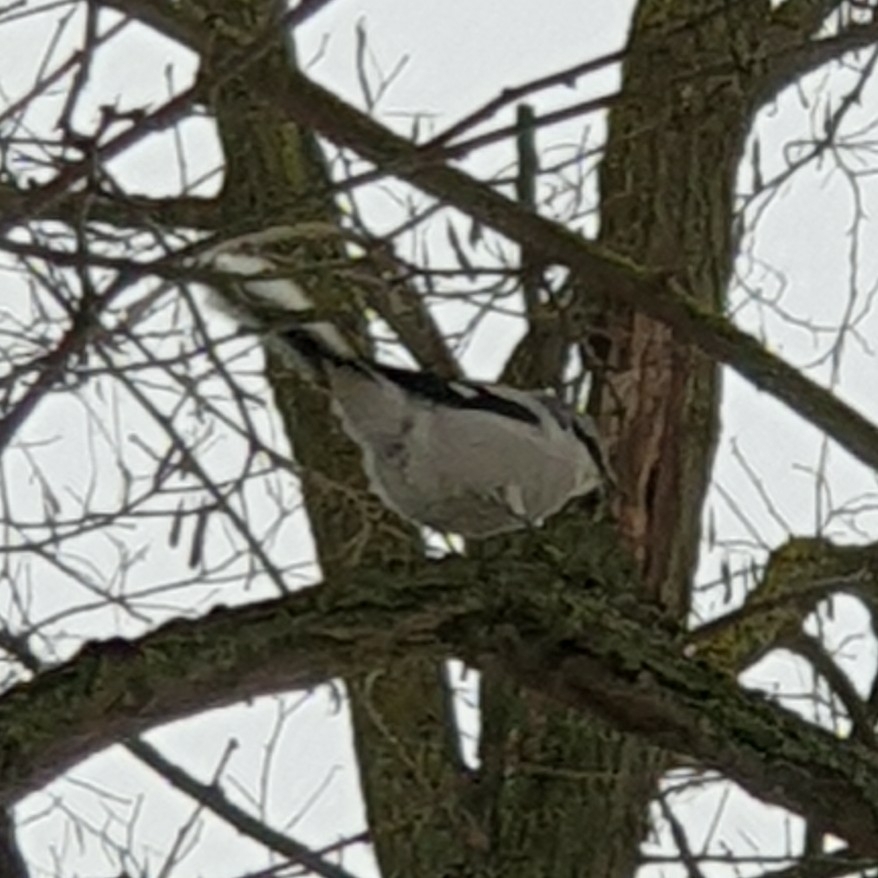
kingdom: Animalia
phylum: Chordata
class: Aves
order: Passeriformes
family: Laniidae
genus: Lanius
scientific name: Lanius excubitor
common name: Great grey shrike
